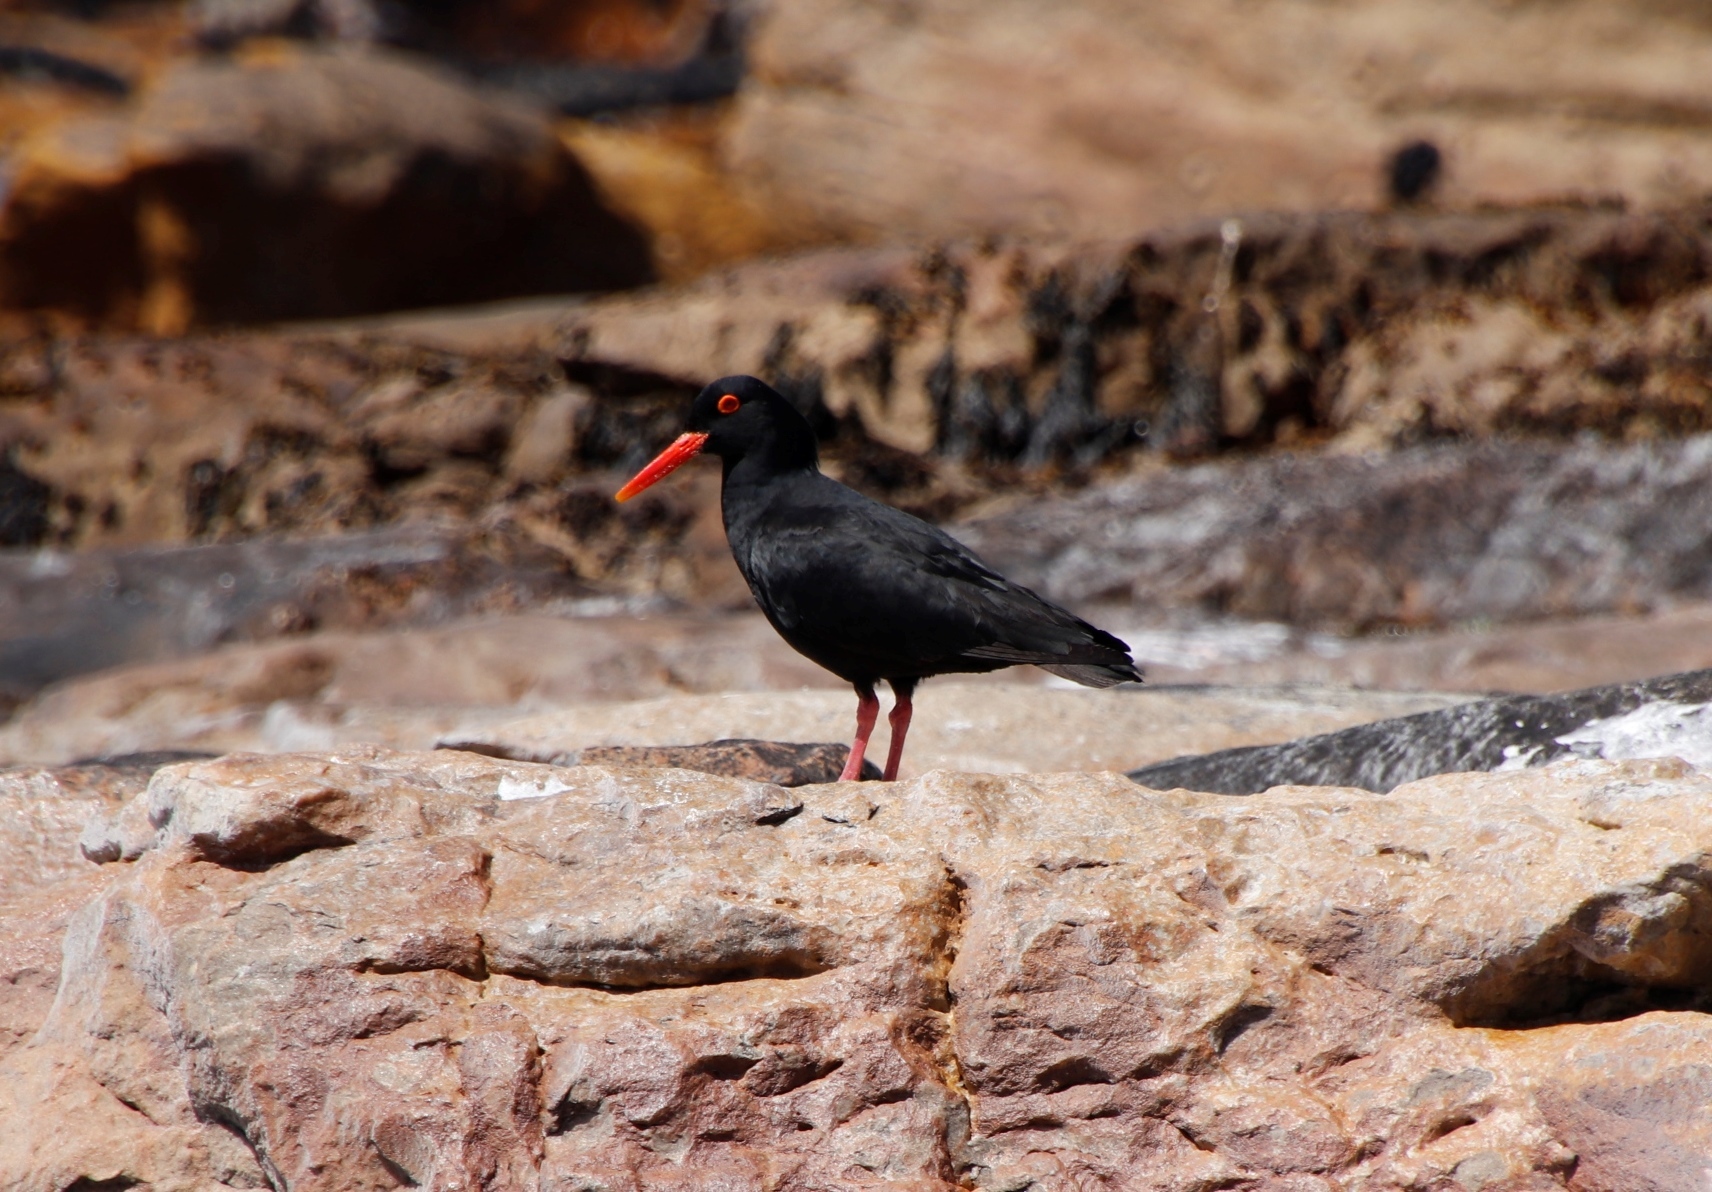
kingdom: Animalia
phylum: Chordata
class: Aves
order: Charadriiformes
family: Haematopodidae
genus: Haematopus
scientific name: Haematopus moquini
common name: African oystercatcher
